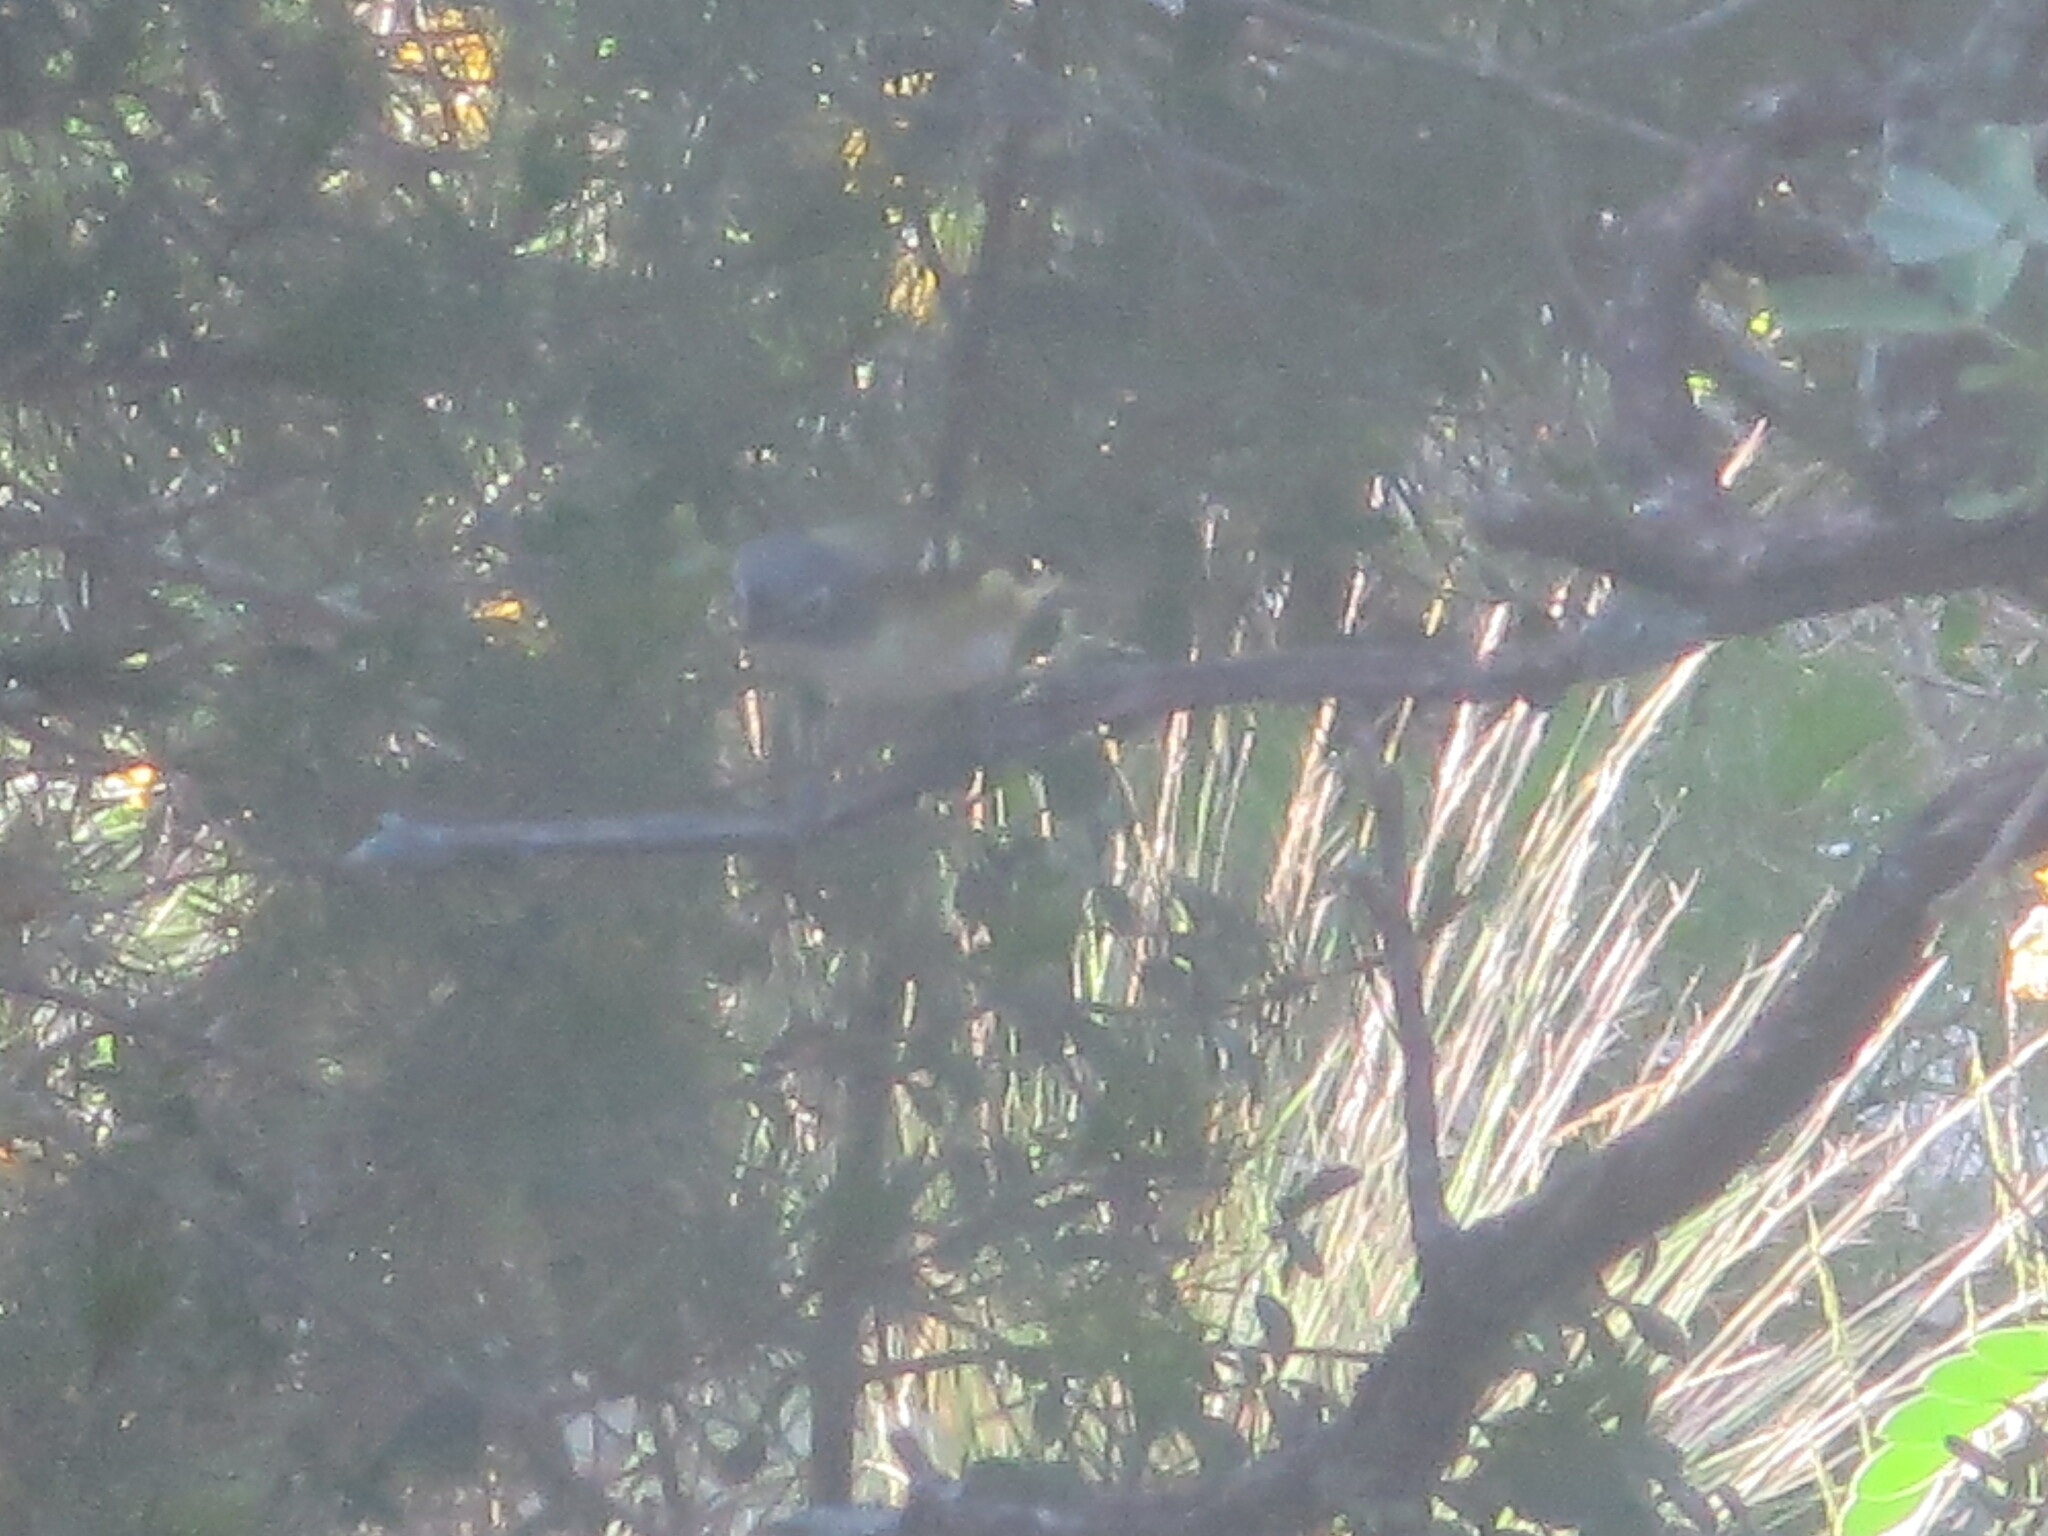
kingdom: Animalia
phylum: Chordata
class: Aves
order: Passeriformes
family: Vireonidae
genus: Vireo
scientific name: Vireo solitarius
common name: Blue-headed vireo
